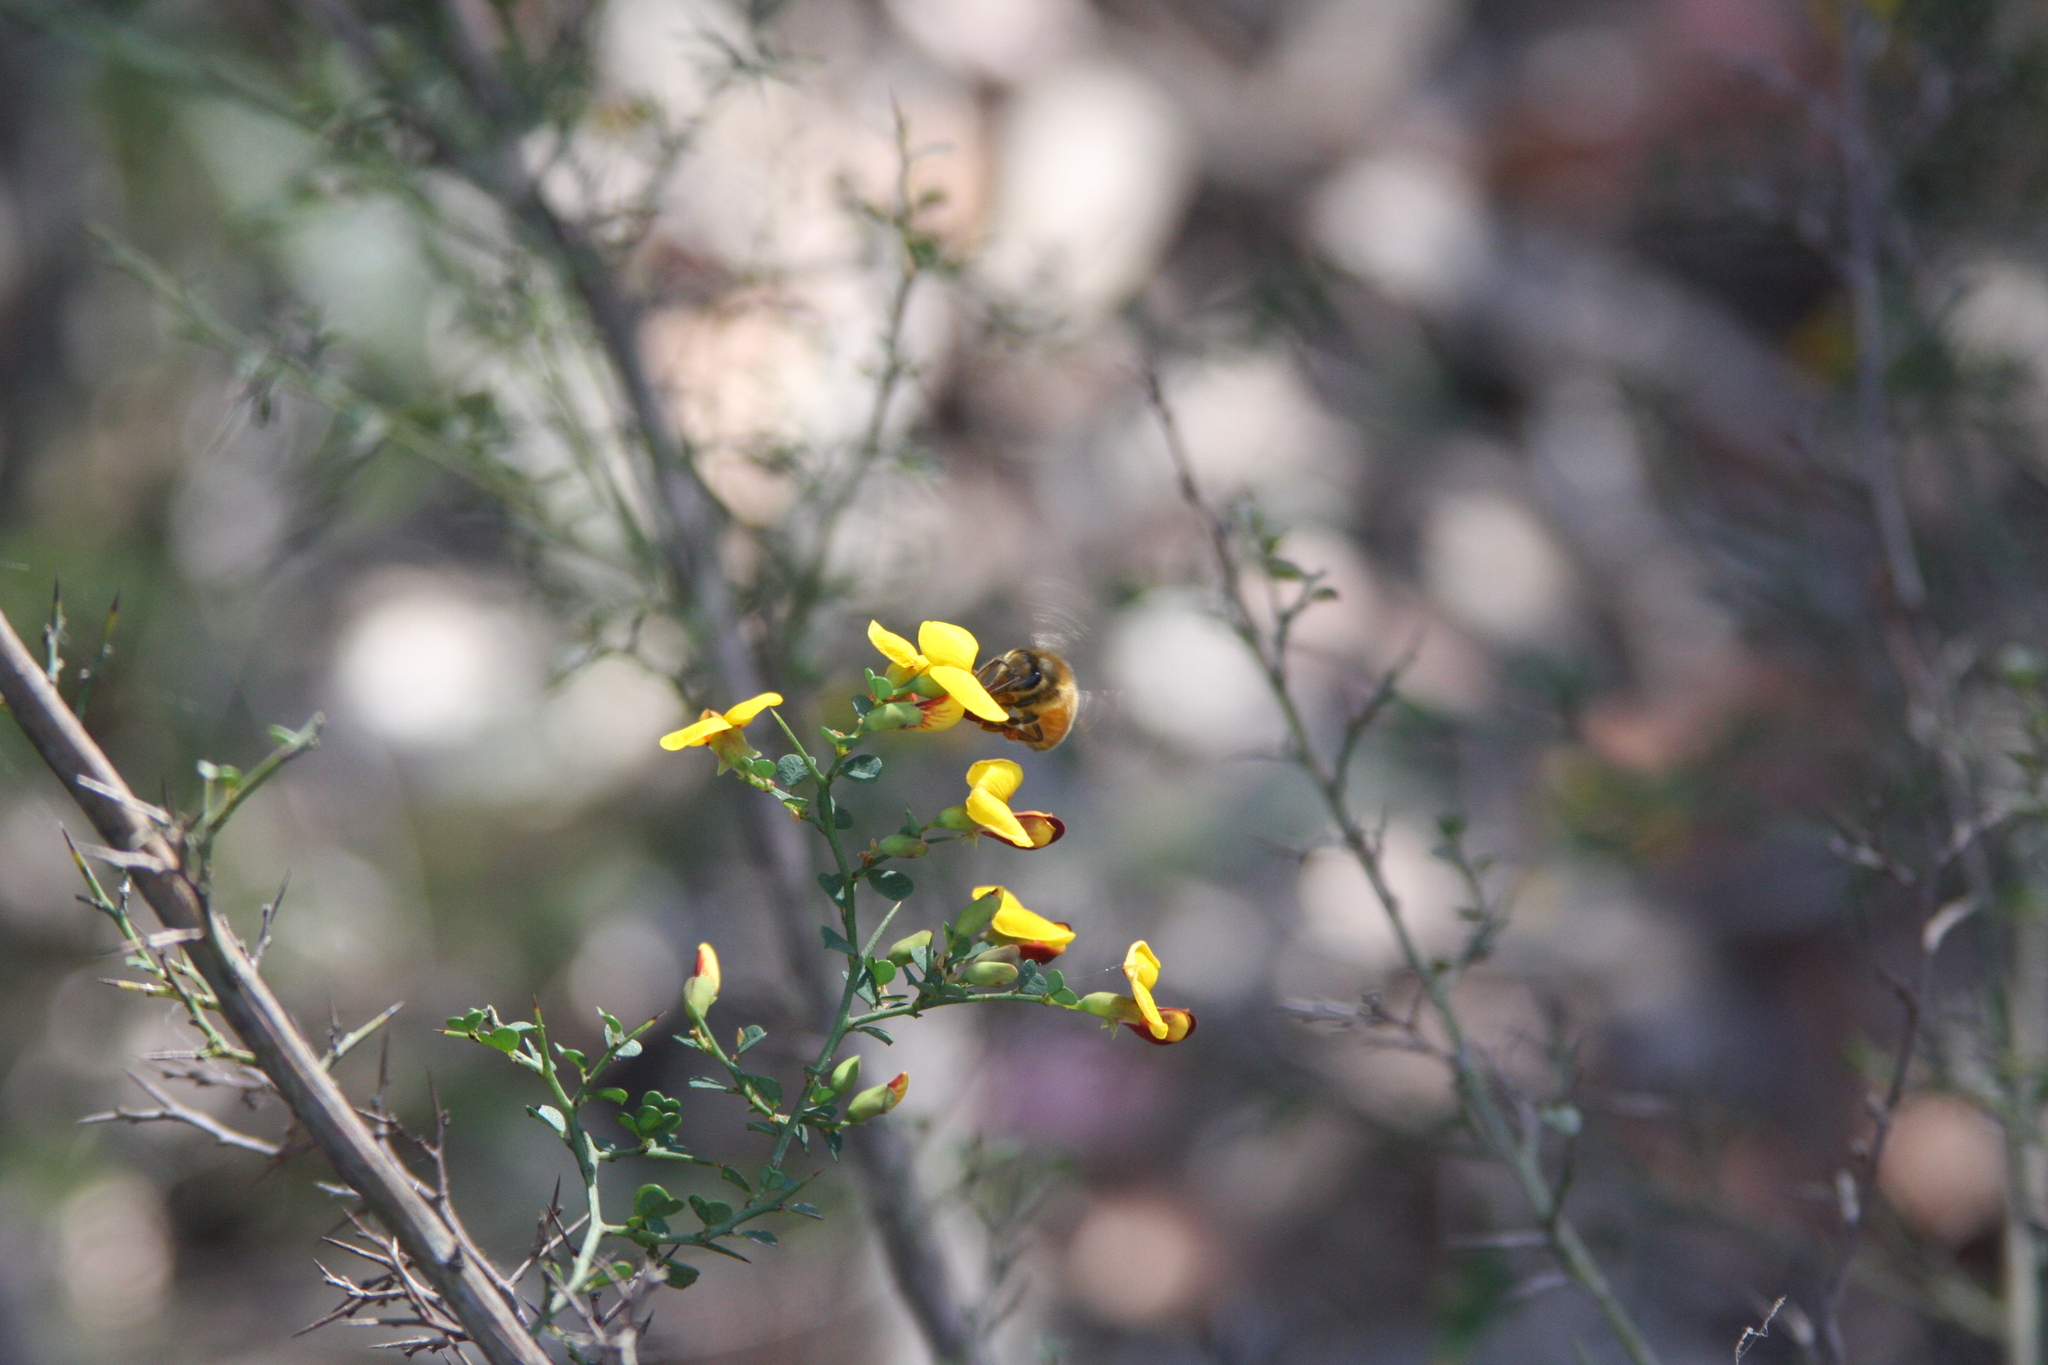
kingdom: Plantae
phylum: Tracheophyta
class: Magnoliopsida
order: Fabales
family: Fabaceae
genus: Bossiaea
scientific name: Bossiaea obcordata
